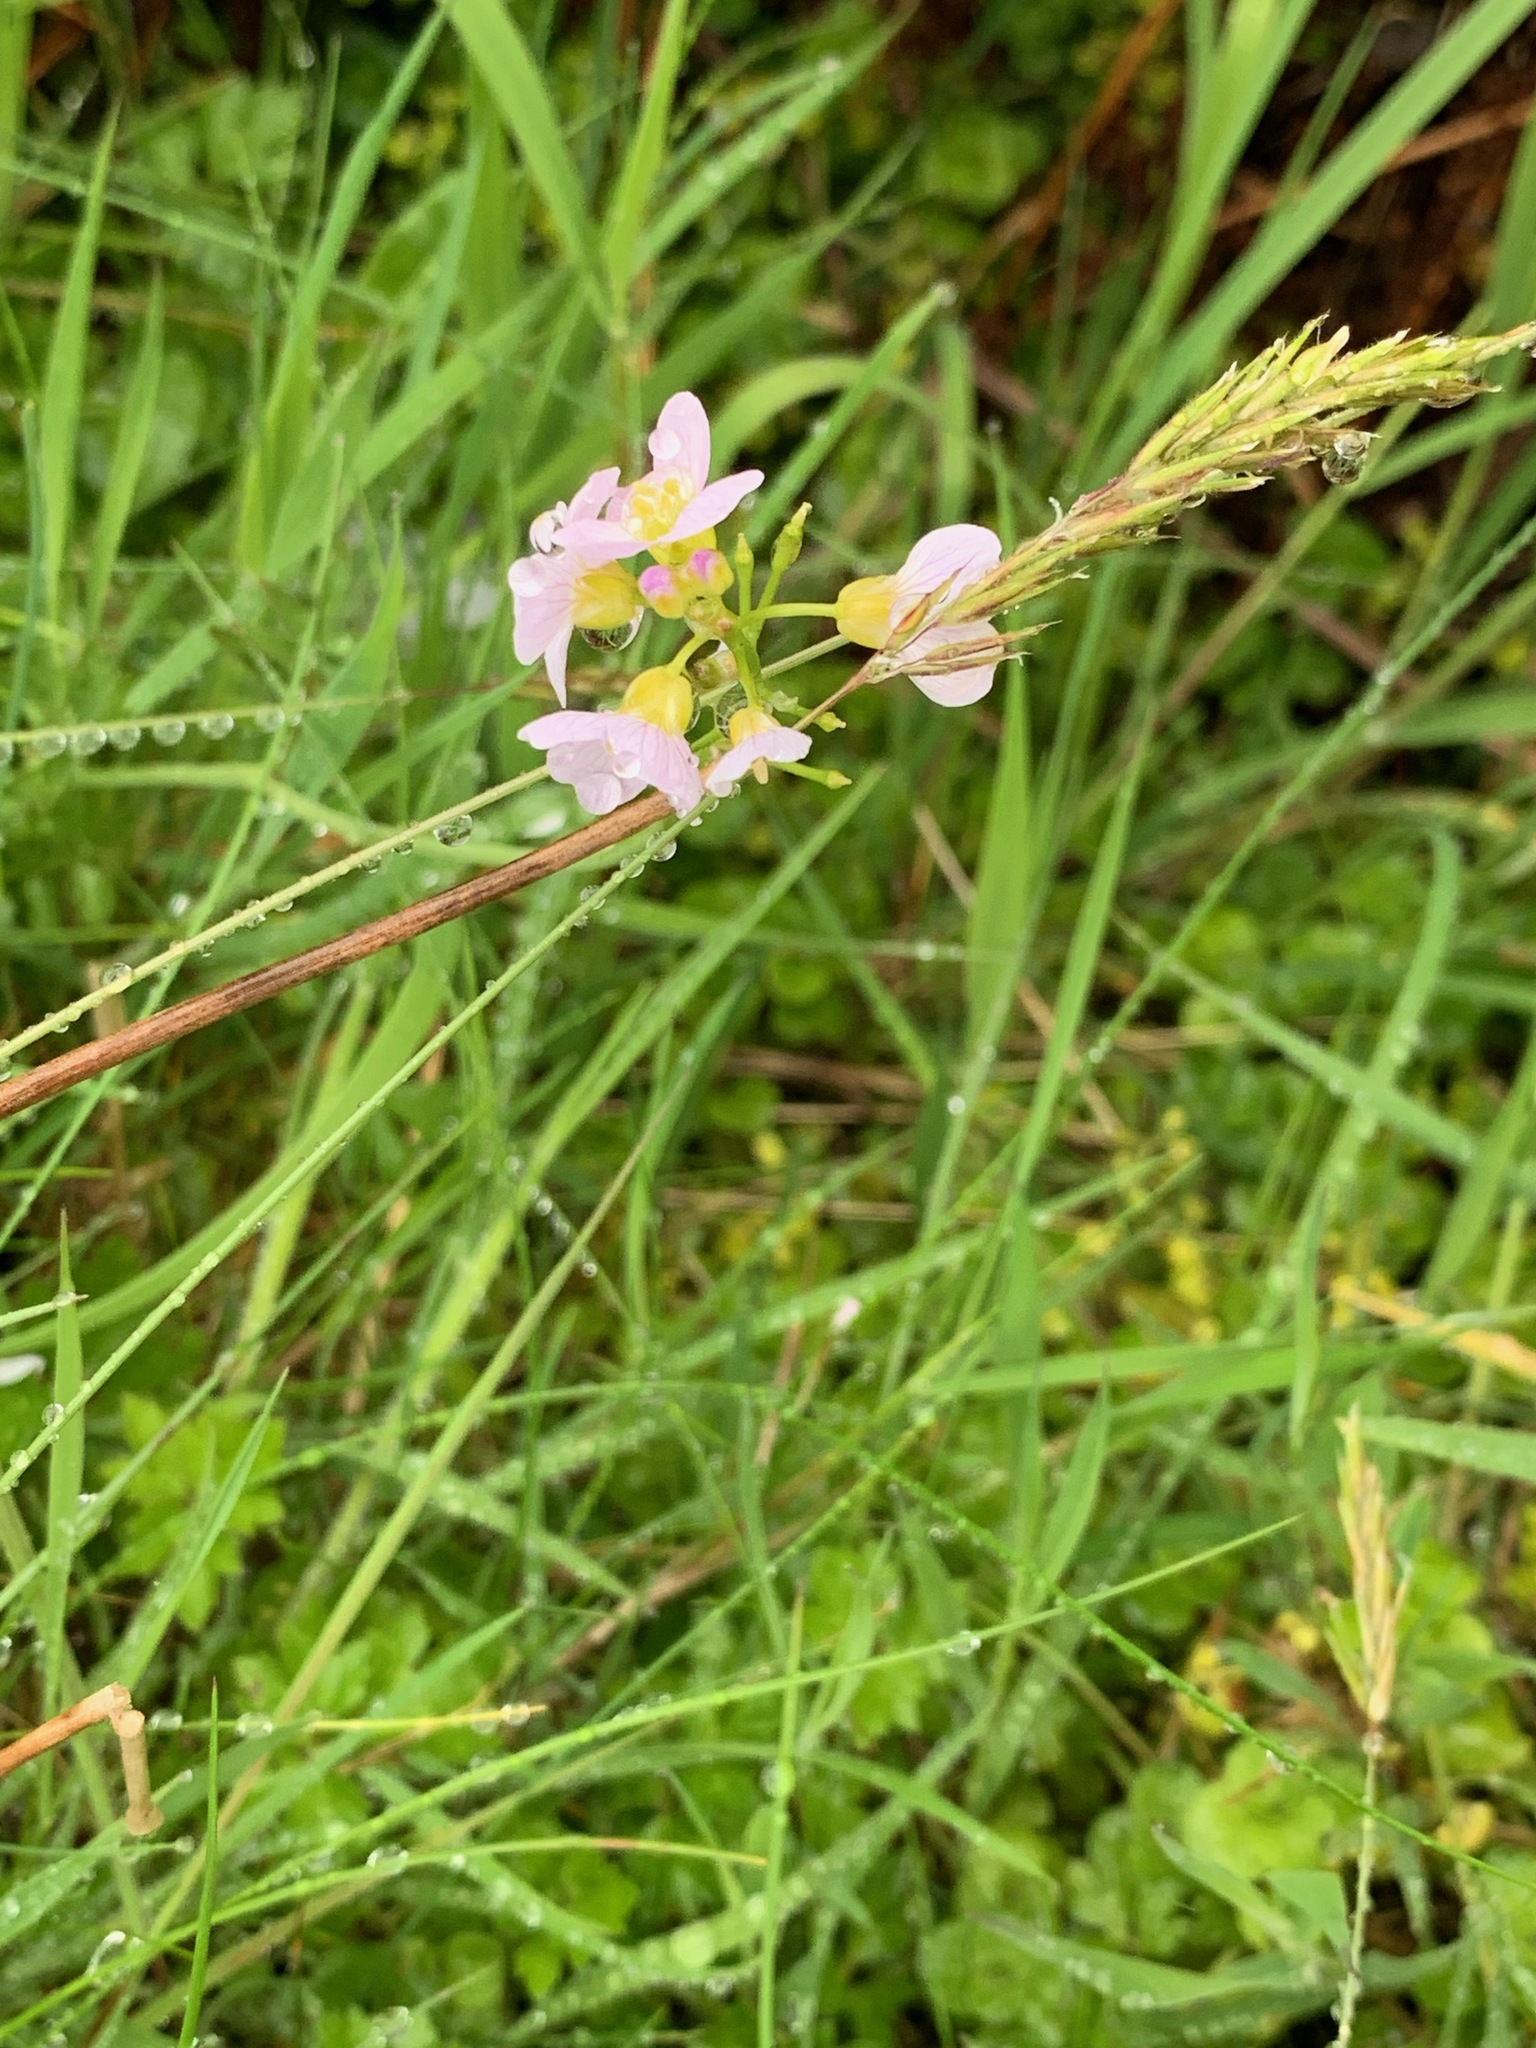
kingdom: Plantae
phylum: Tracheophyta
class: Magnoliopsida
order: Brassicales
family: Brassicaceae
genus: Cardamine
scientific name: Cardamine pratensis
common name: Cuckoo flower
